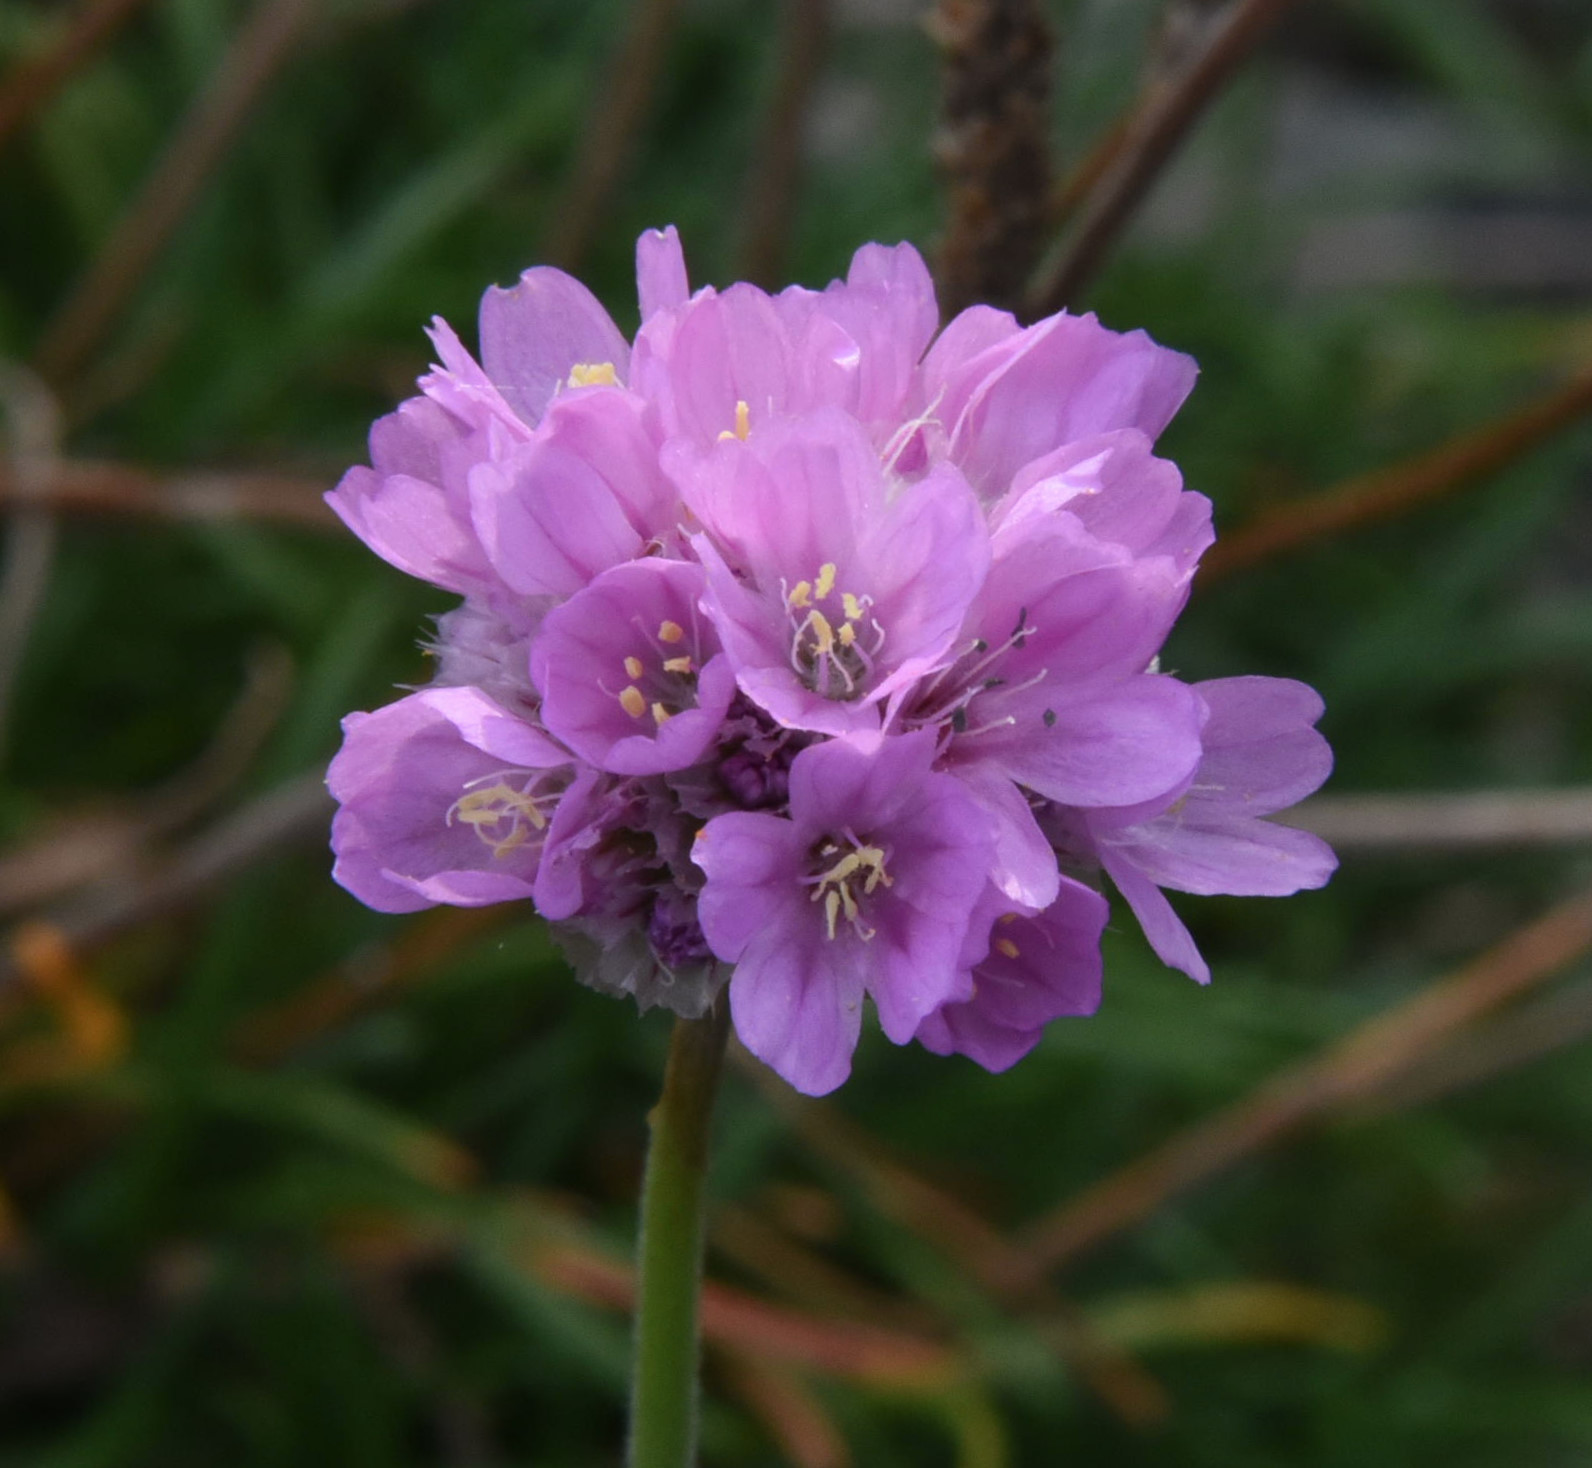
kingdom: Plantae
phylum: Tracheophyta
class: Magnoliopsida
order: Caryophyllales
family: Plumbaginaceae
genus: Armeria
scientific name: Armeria maritima
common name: Thrift
